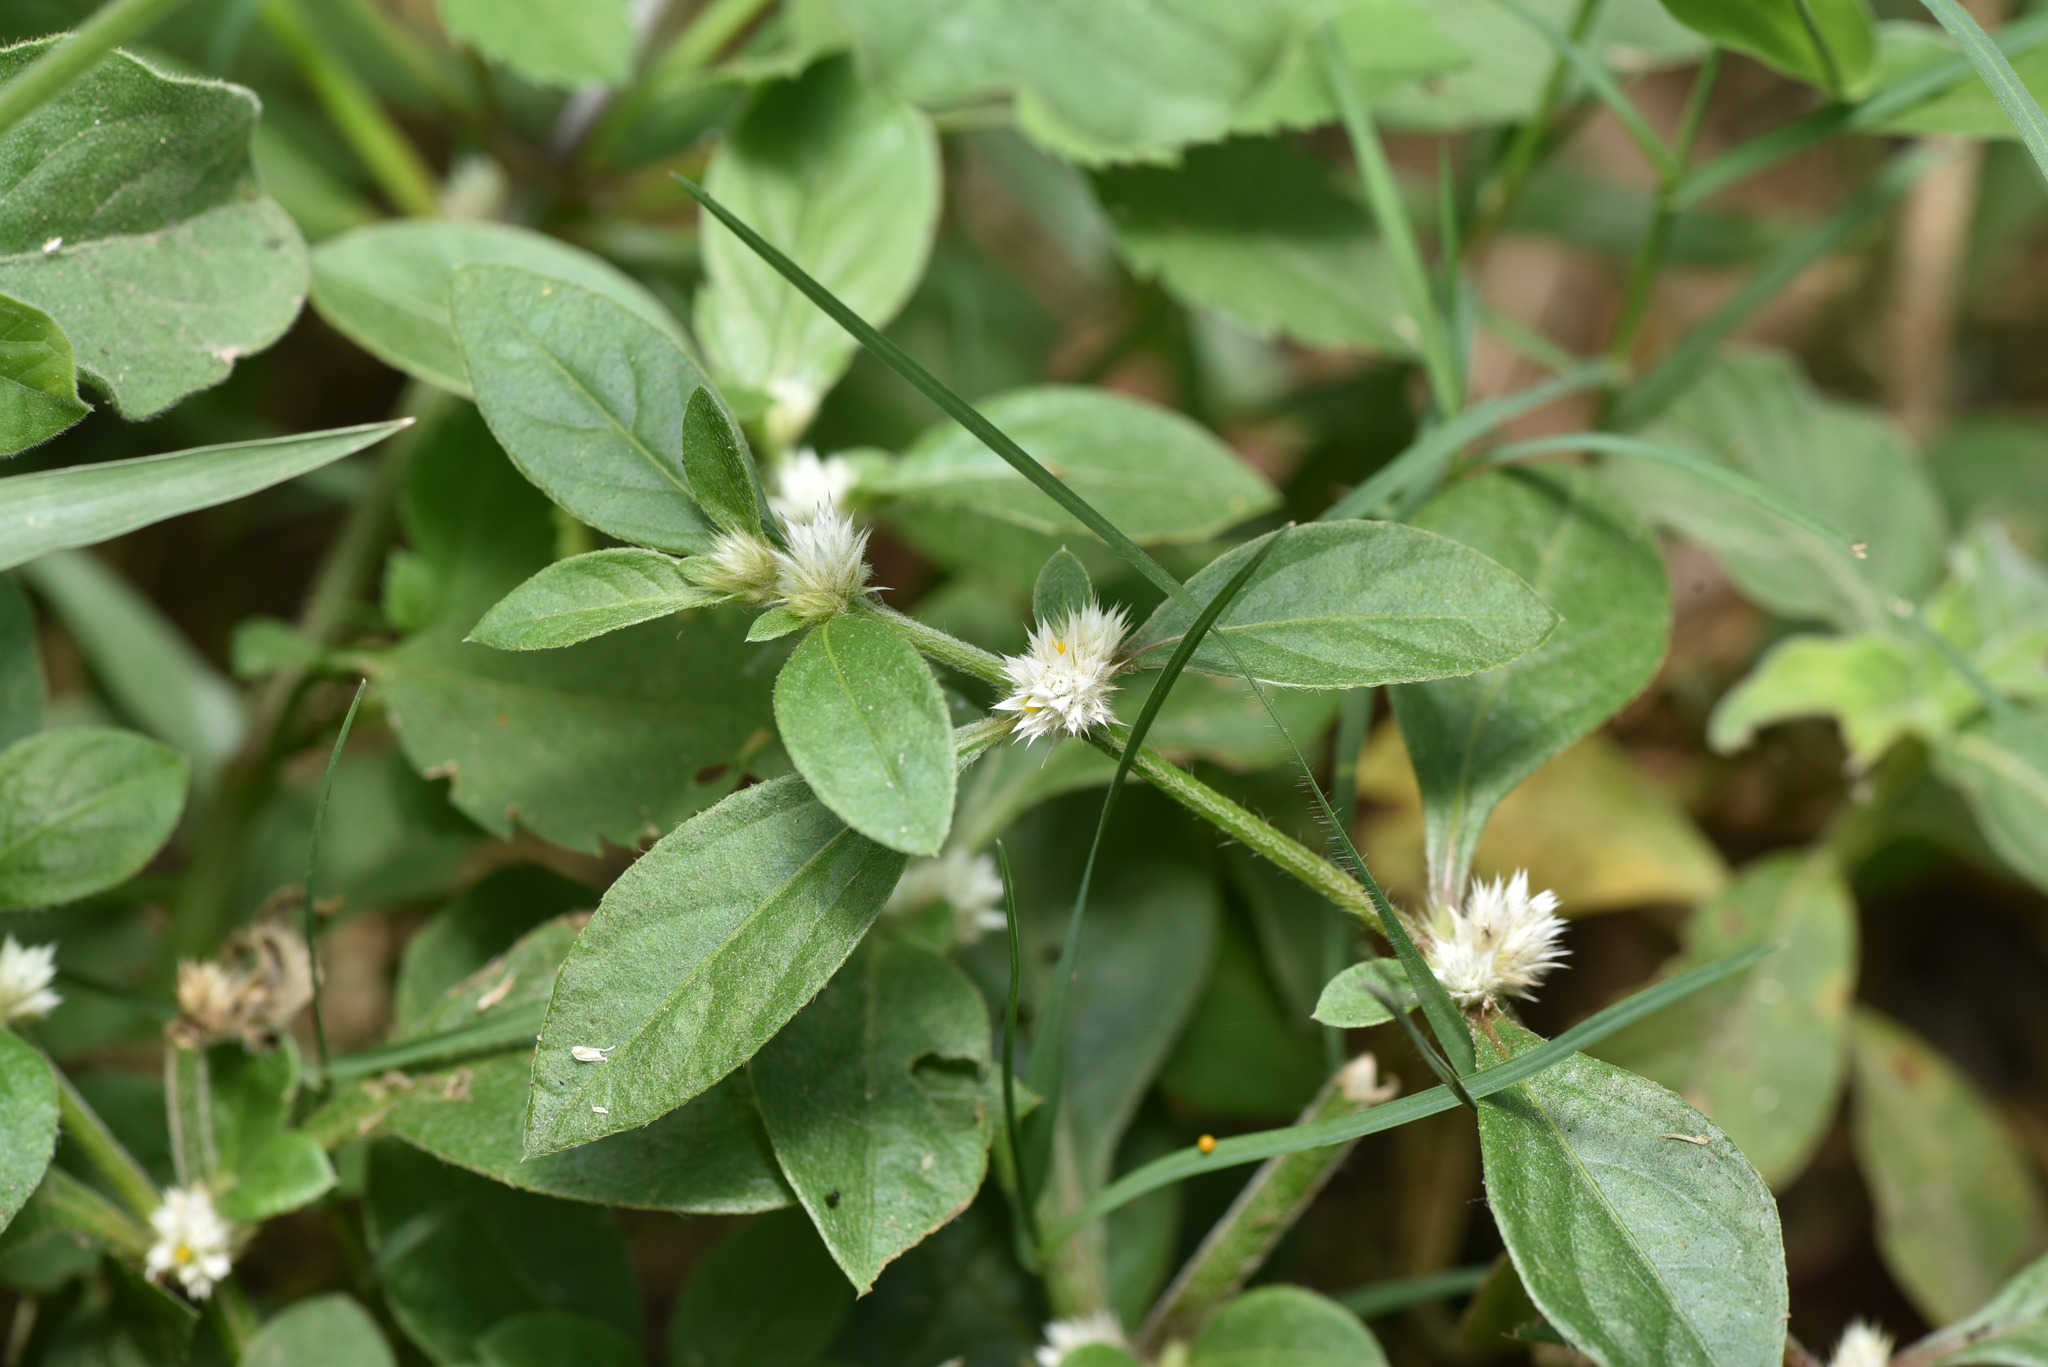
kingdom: Plantae
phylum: Tracheophyta
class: Magnoliopsida
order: Caryophyllales
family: Amaranthaceae
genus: Alternanthera
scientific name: Alternanthera ficoidea
